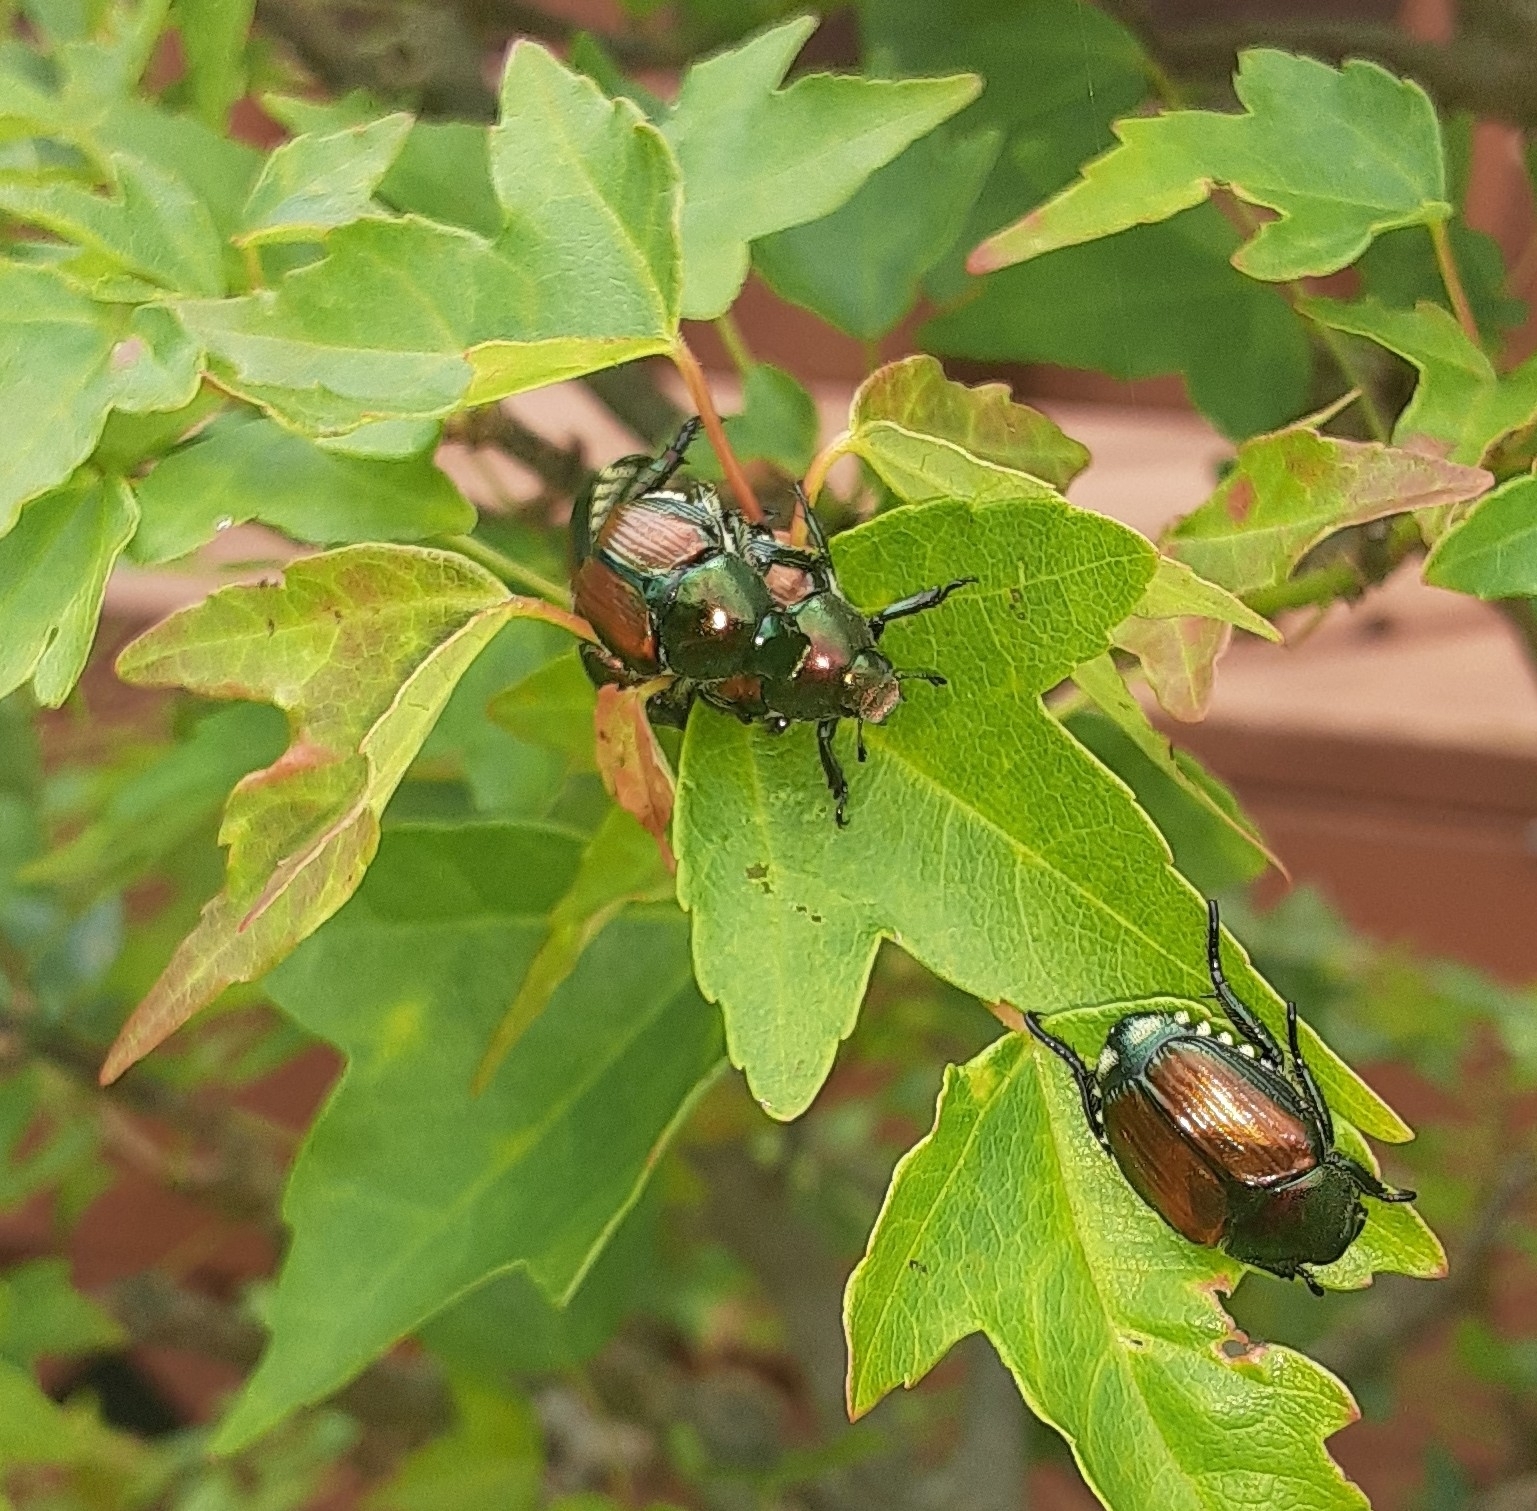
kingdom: Animalia
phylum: Arthropoda
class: Insecta
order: Coleoptera
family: Scarabaeidae
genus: Popillia
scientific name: Popillia japonica
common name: Japanese beetle
